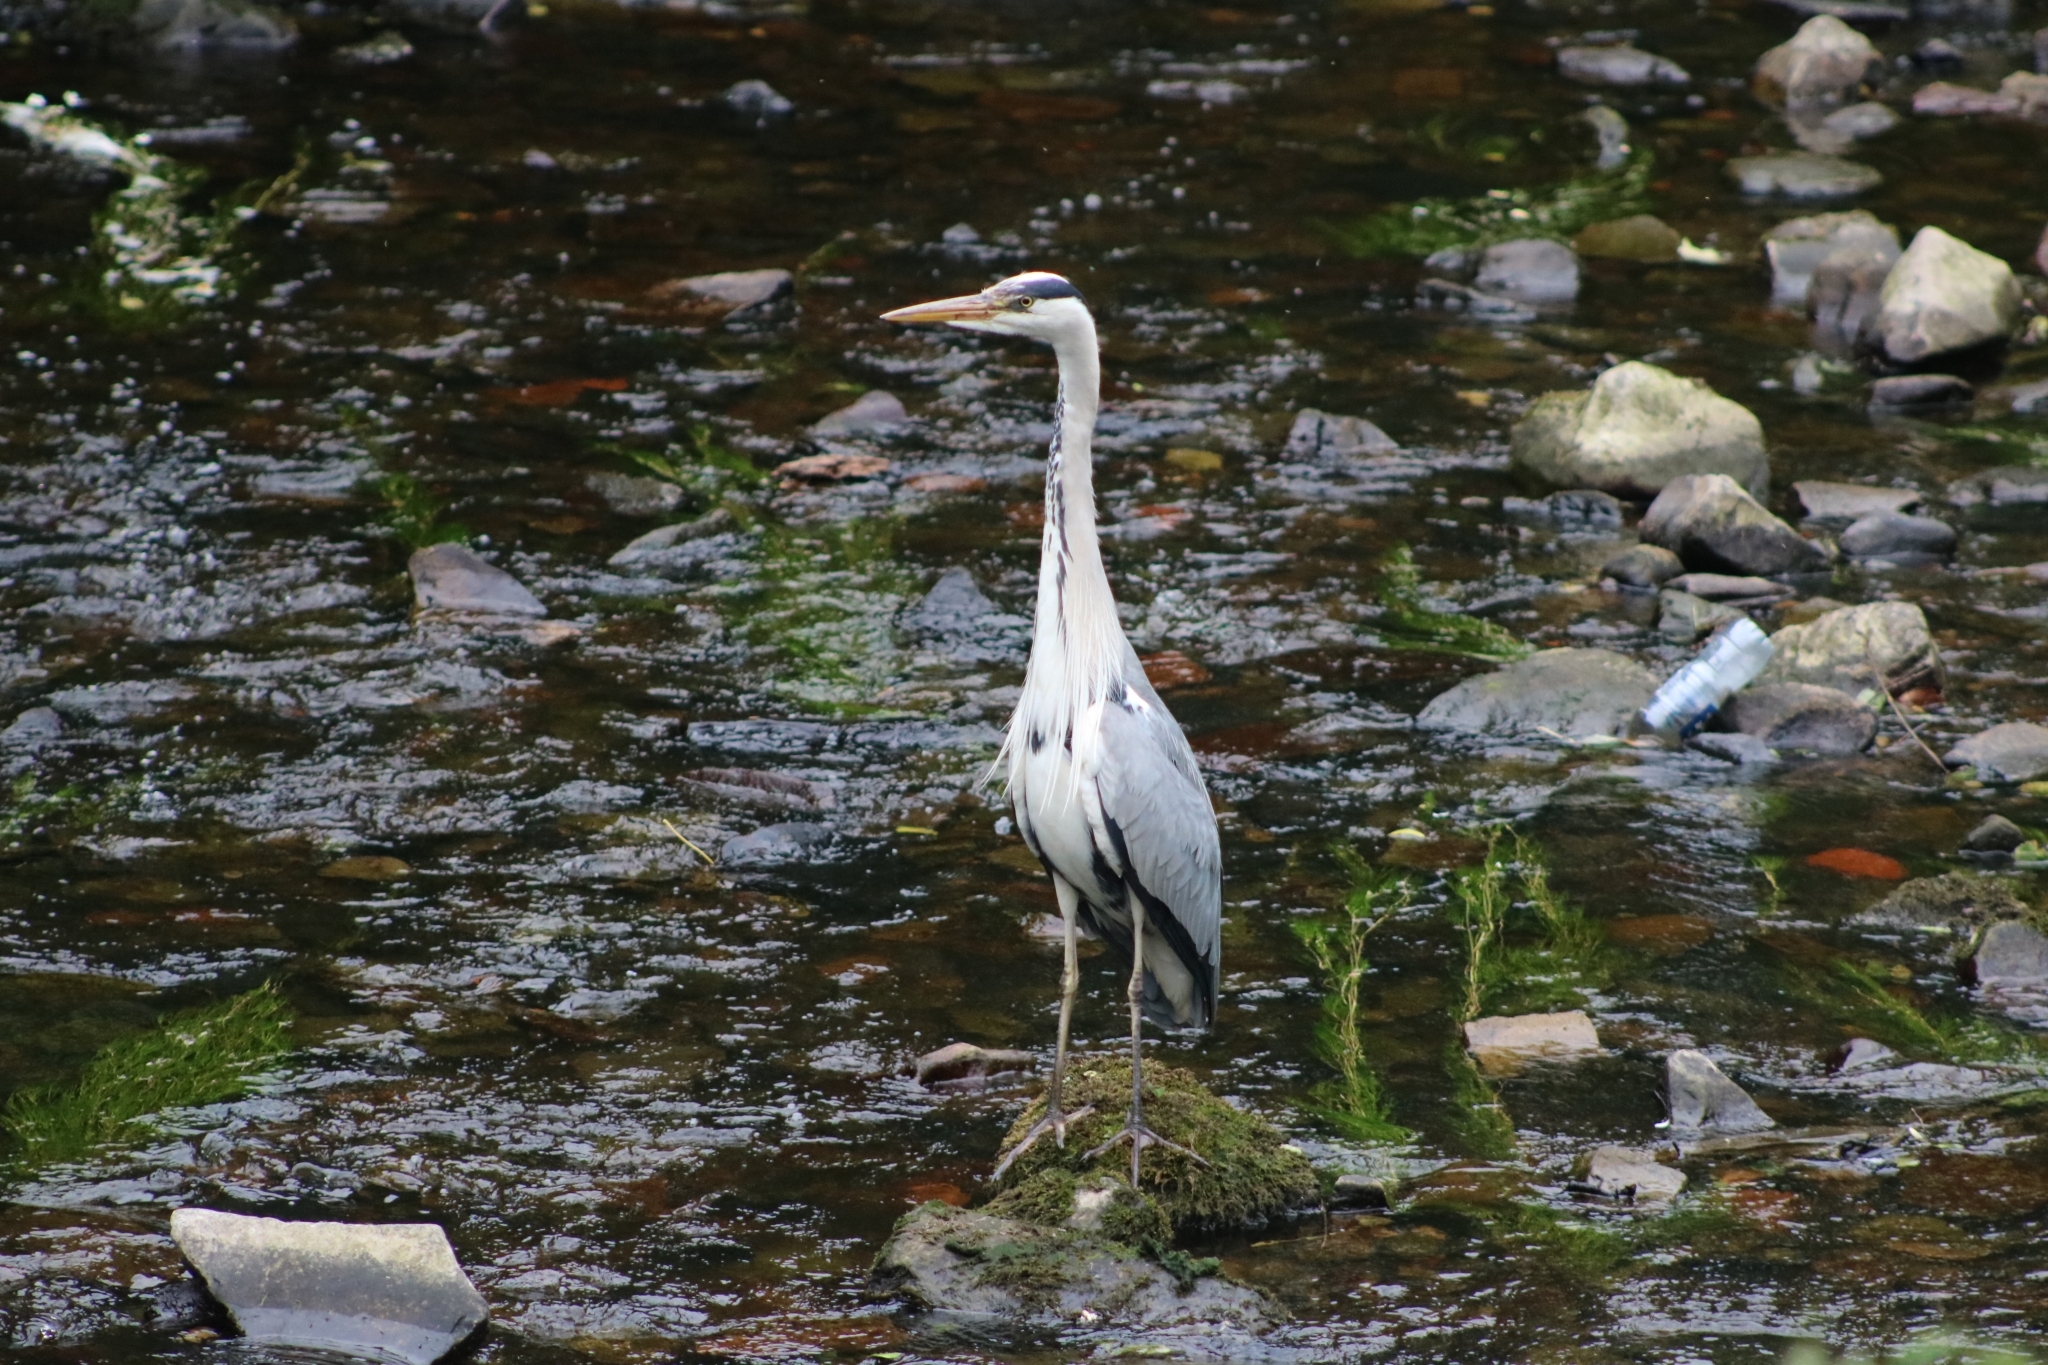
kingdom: Animalia
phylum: Chordata
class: Aves
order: Pelecaniformes
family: Ardeidae
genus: Ardea
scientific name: Ardea cinerea
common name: Grey heron
